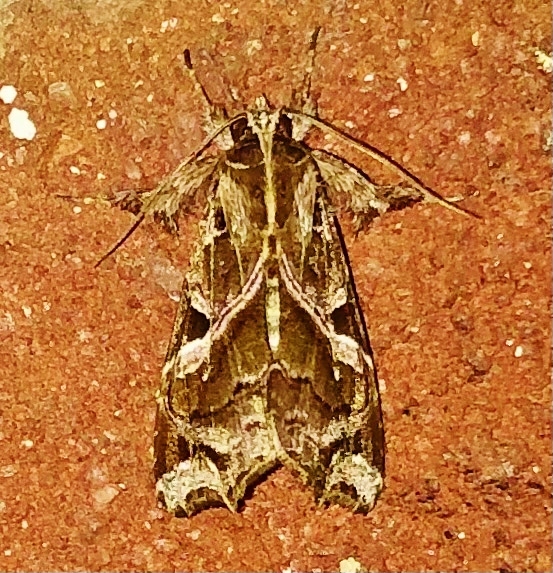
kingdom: Animalia
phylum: Arthropoda
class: Insecta
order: Lepidoptera
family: Noctuidae
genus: Callopistria
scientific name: Callopistria floridensis
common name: Florida fern moth
